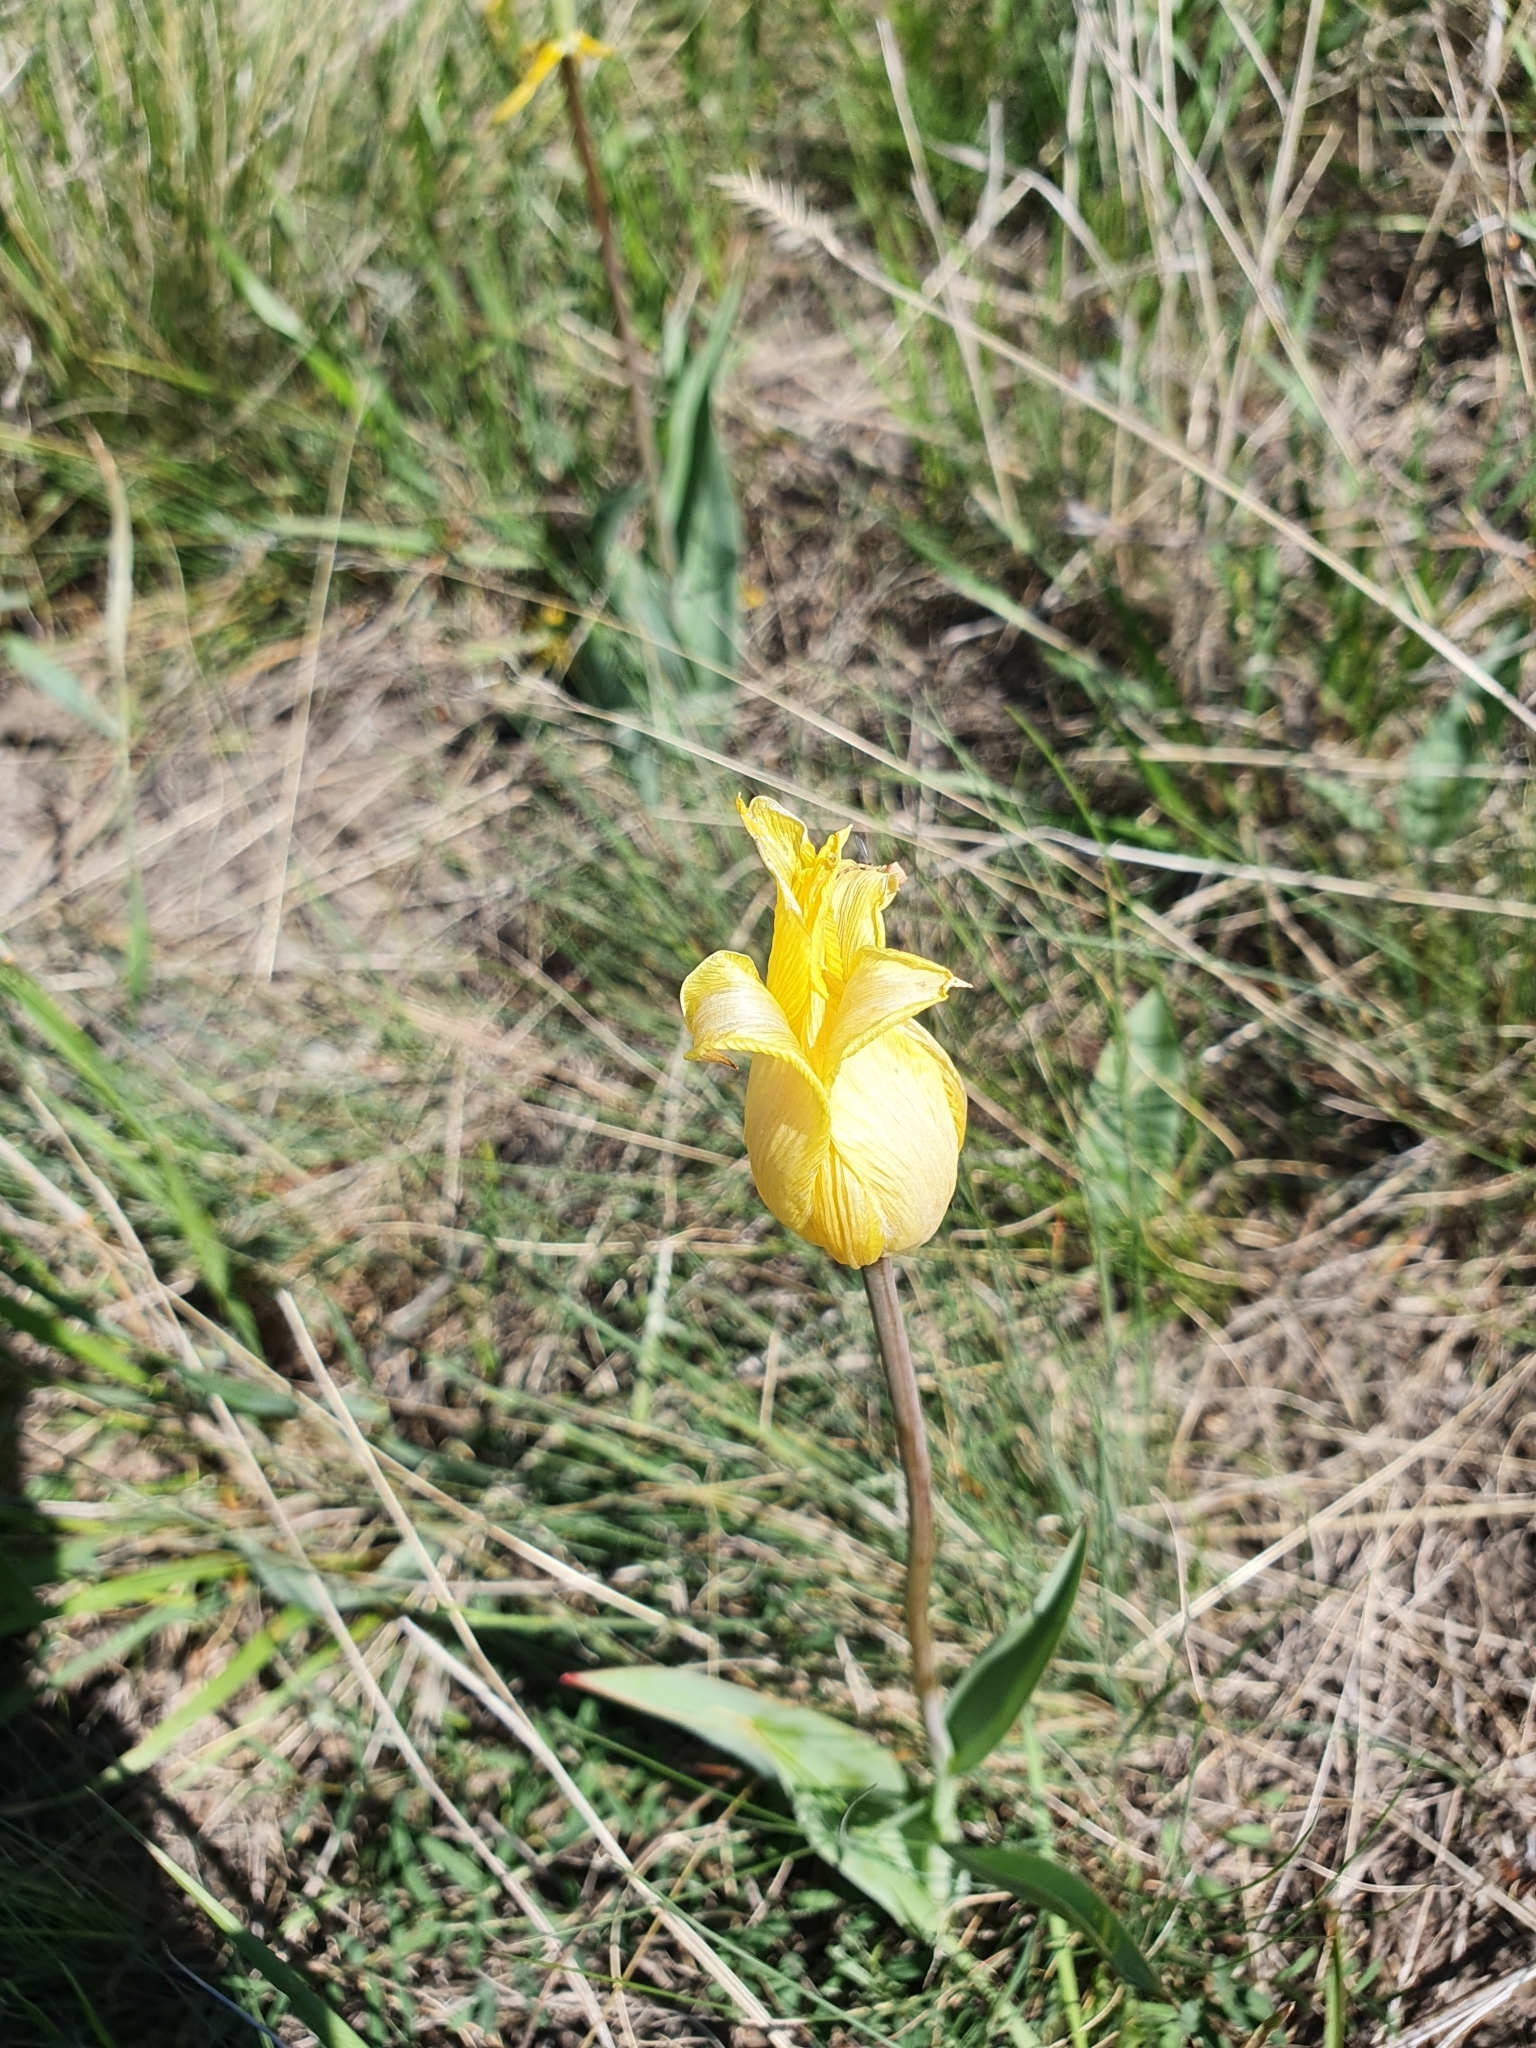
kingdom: Plantae
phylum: Tracheophyta
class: Liliopsida
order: Liliales
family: Liliaceae
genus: Tulipa
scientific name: Tulipa suaveolens
